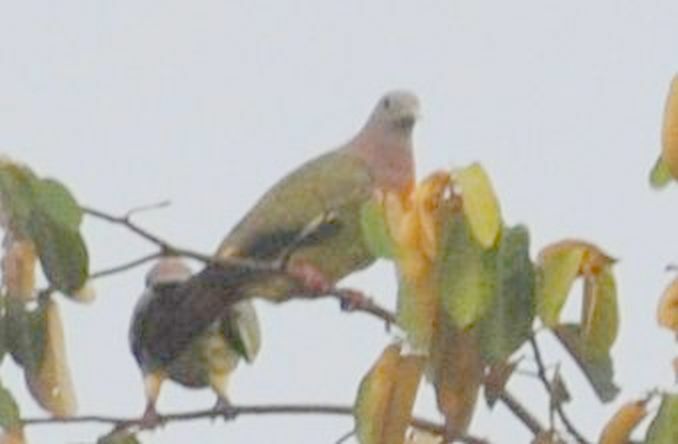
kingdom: Animalia
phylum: Chordata
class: Aves
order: Columbiformes
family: Columbidae
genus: Treron
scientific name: Treron vernans
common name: Pink-necked green pigeon
